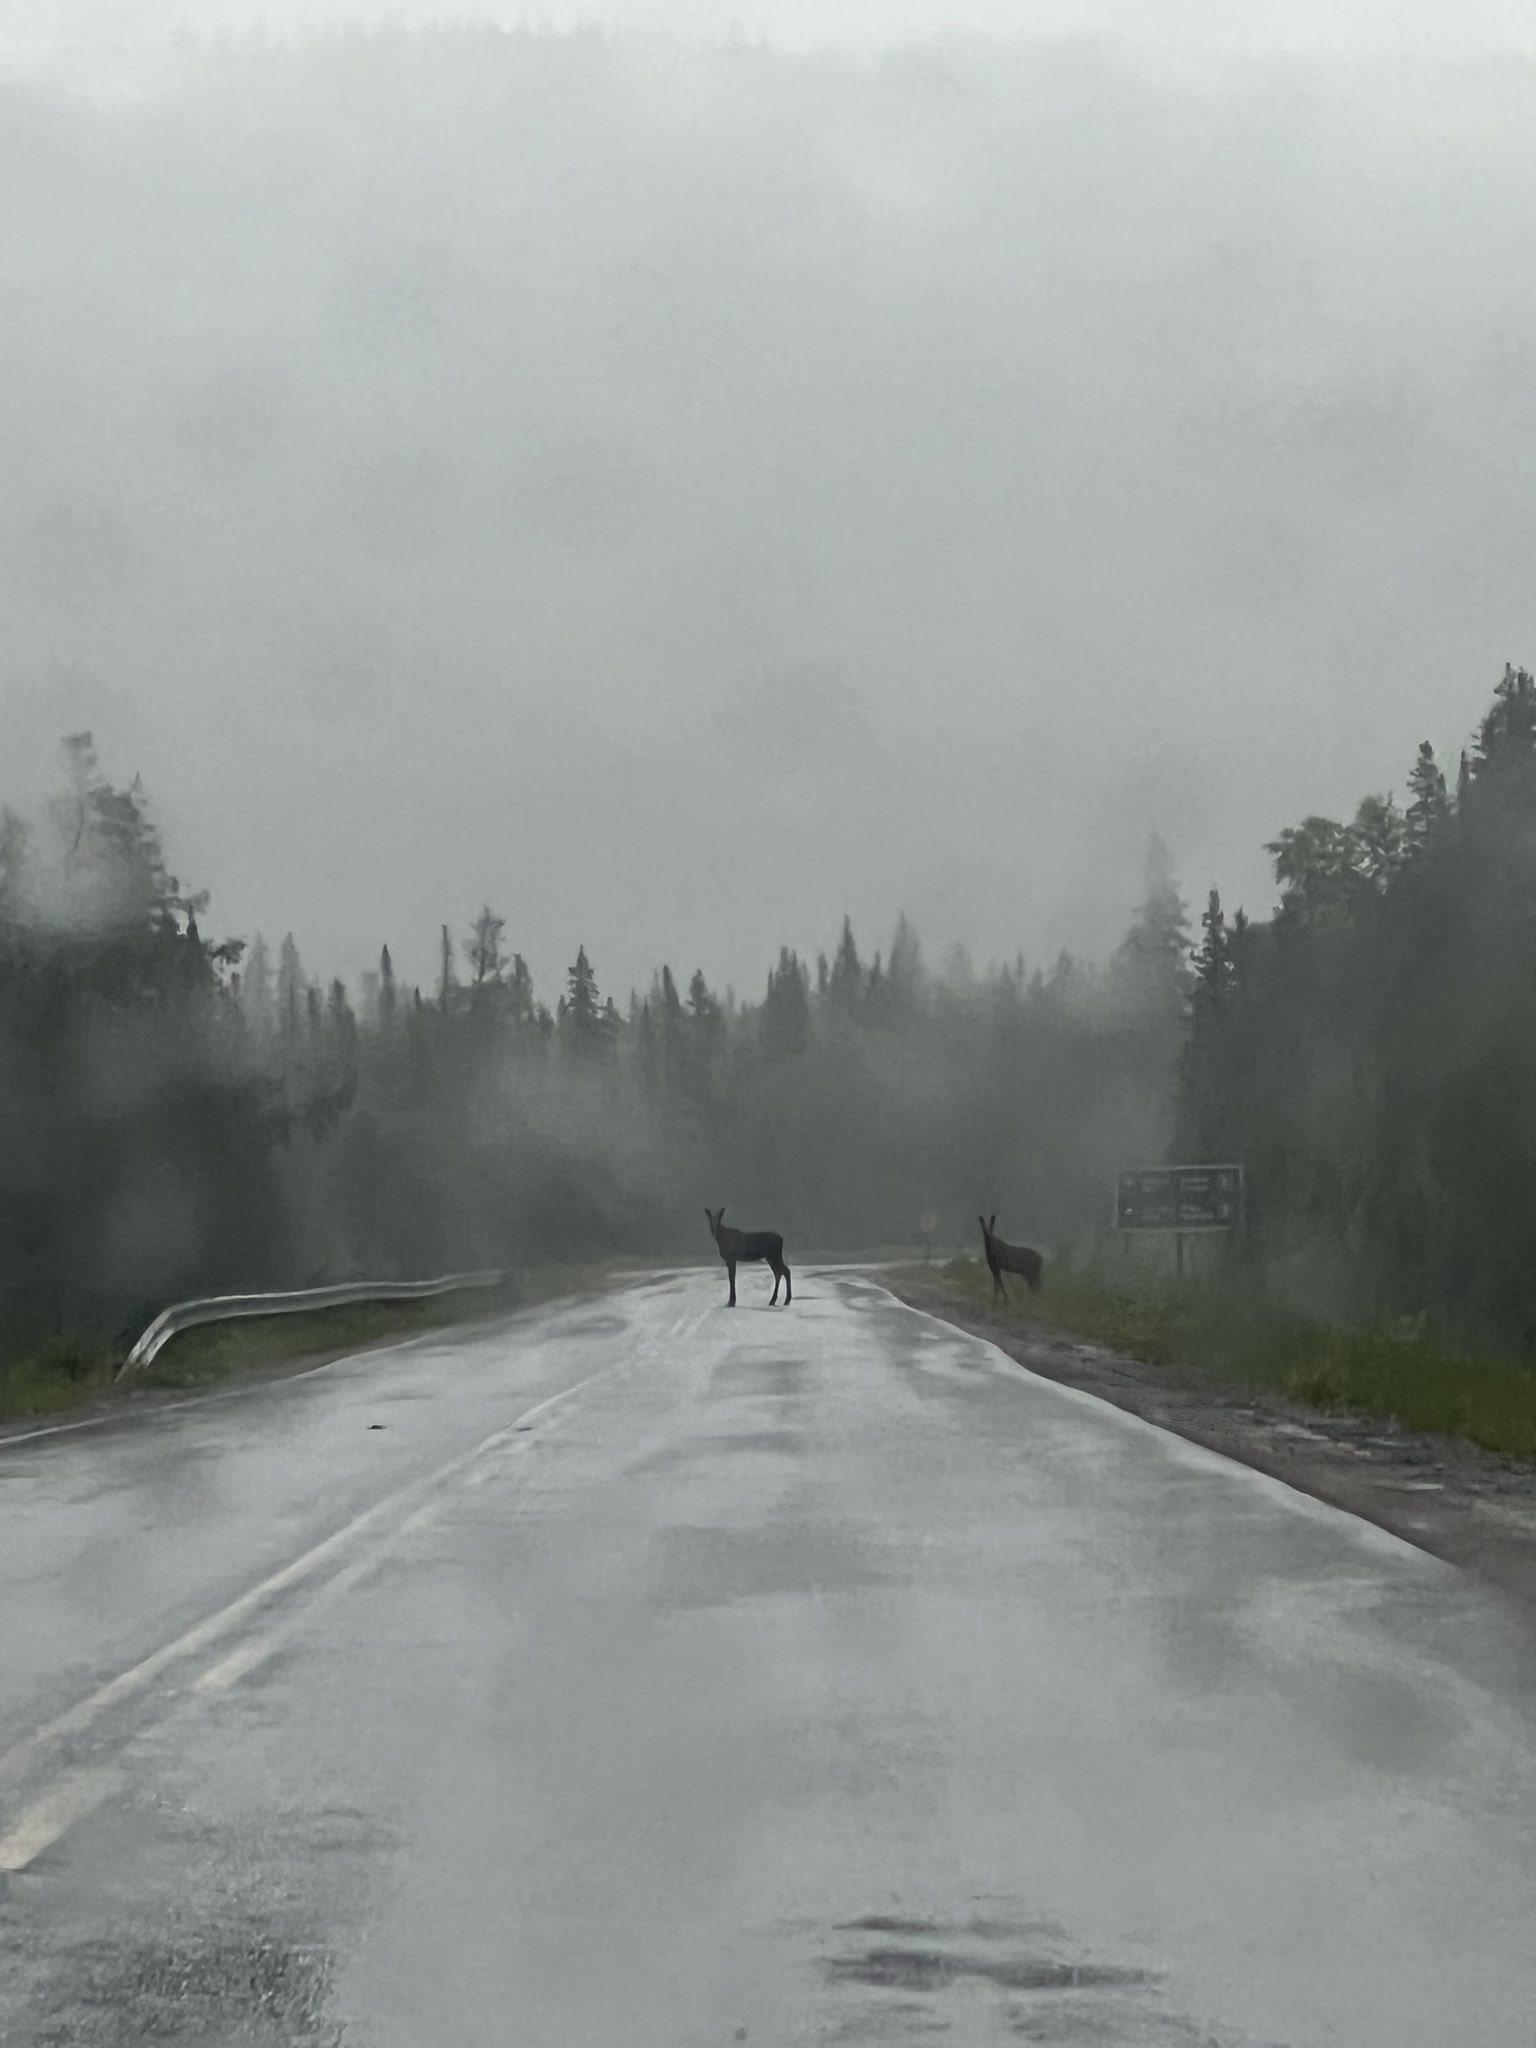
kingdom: Animalia
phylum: Chordata
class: Mammalia
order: Artiodactyla
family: Cervidae
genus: Alces
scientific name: Alces alces
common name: Moose
